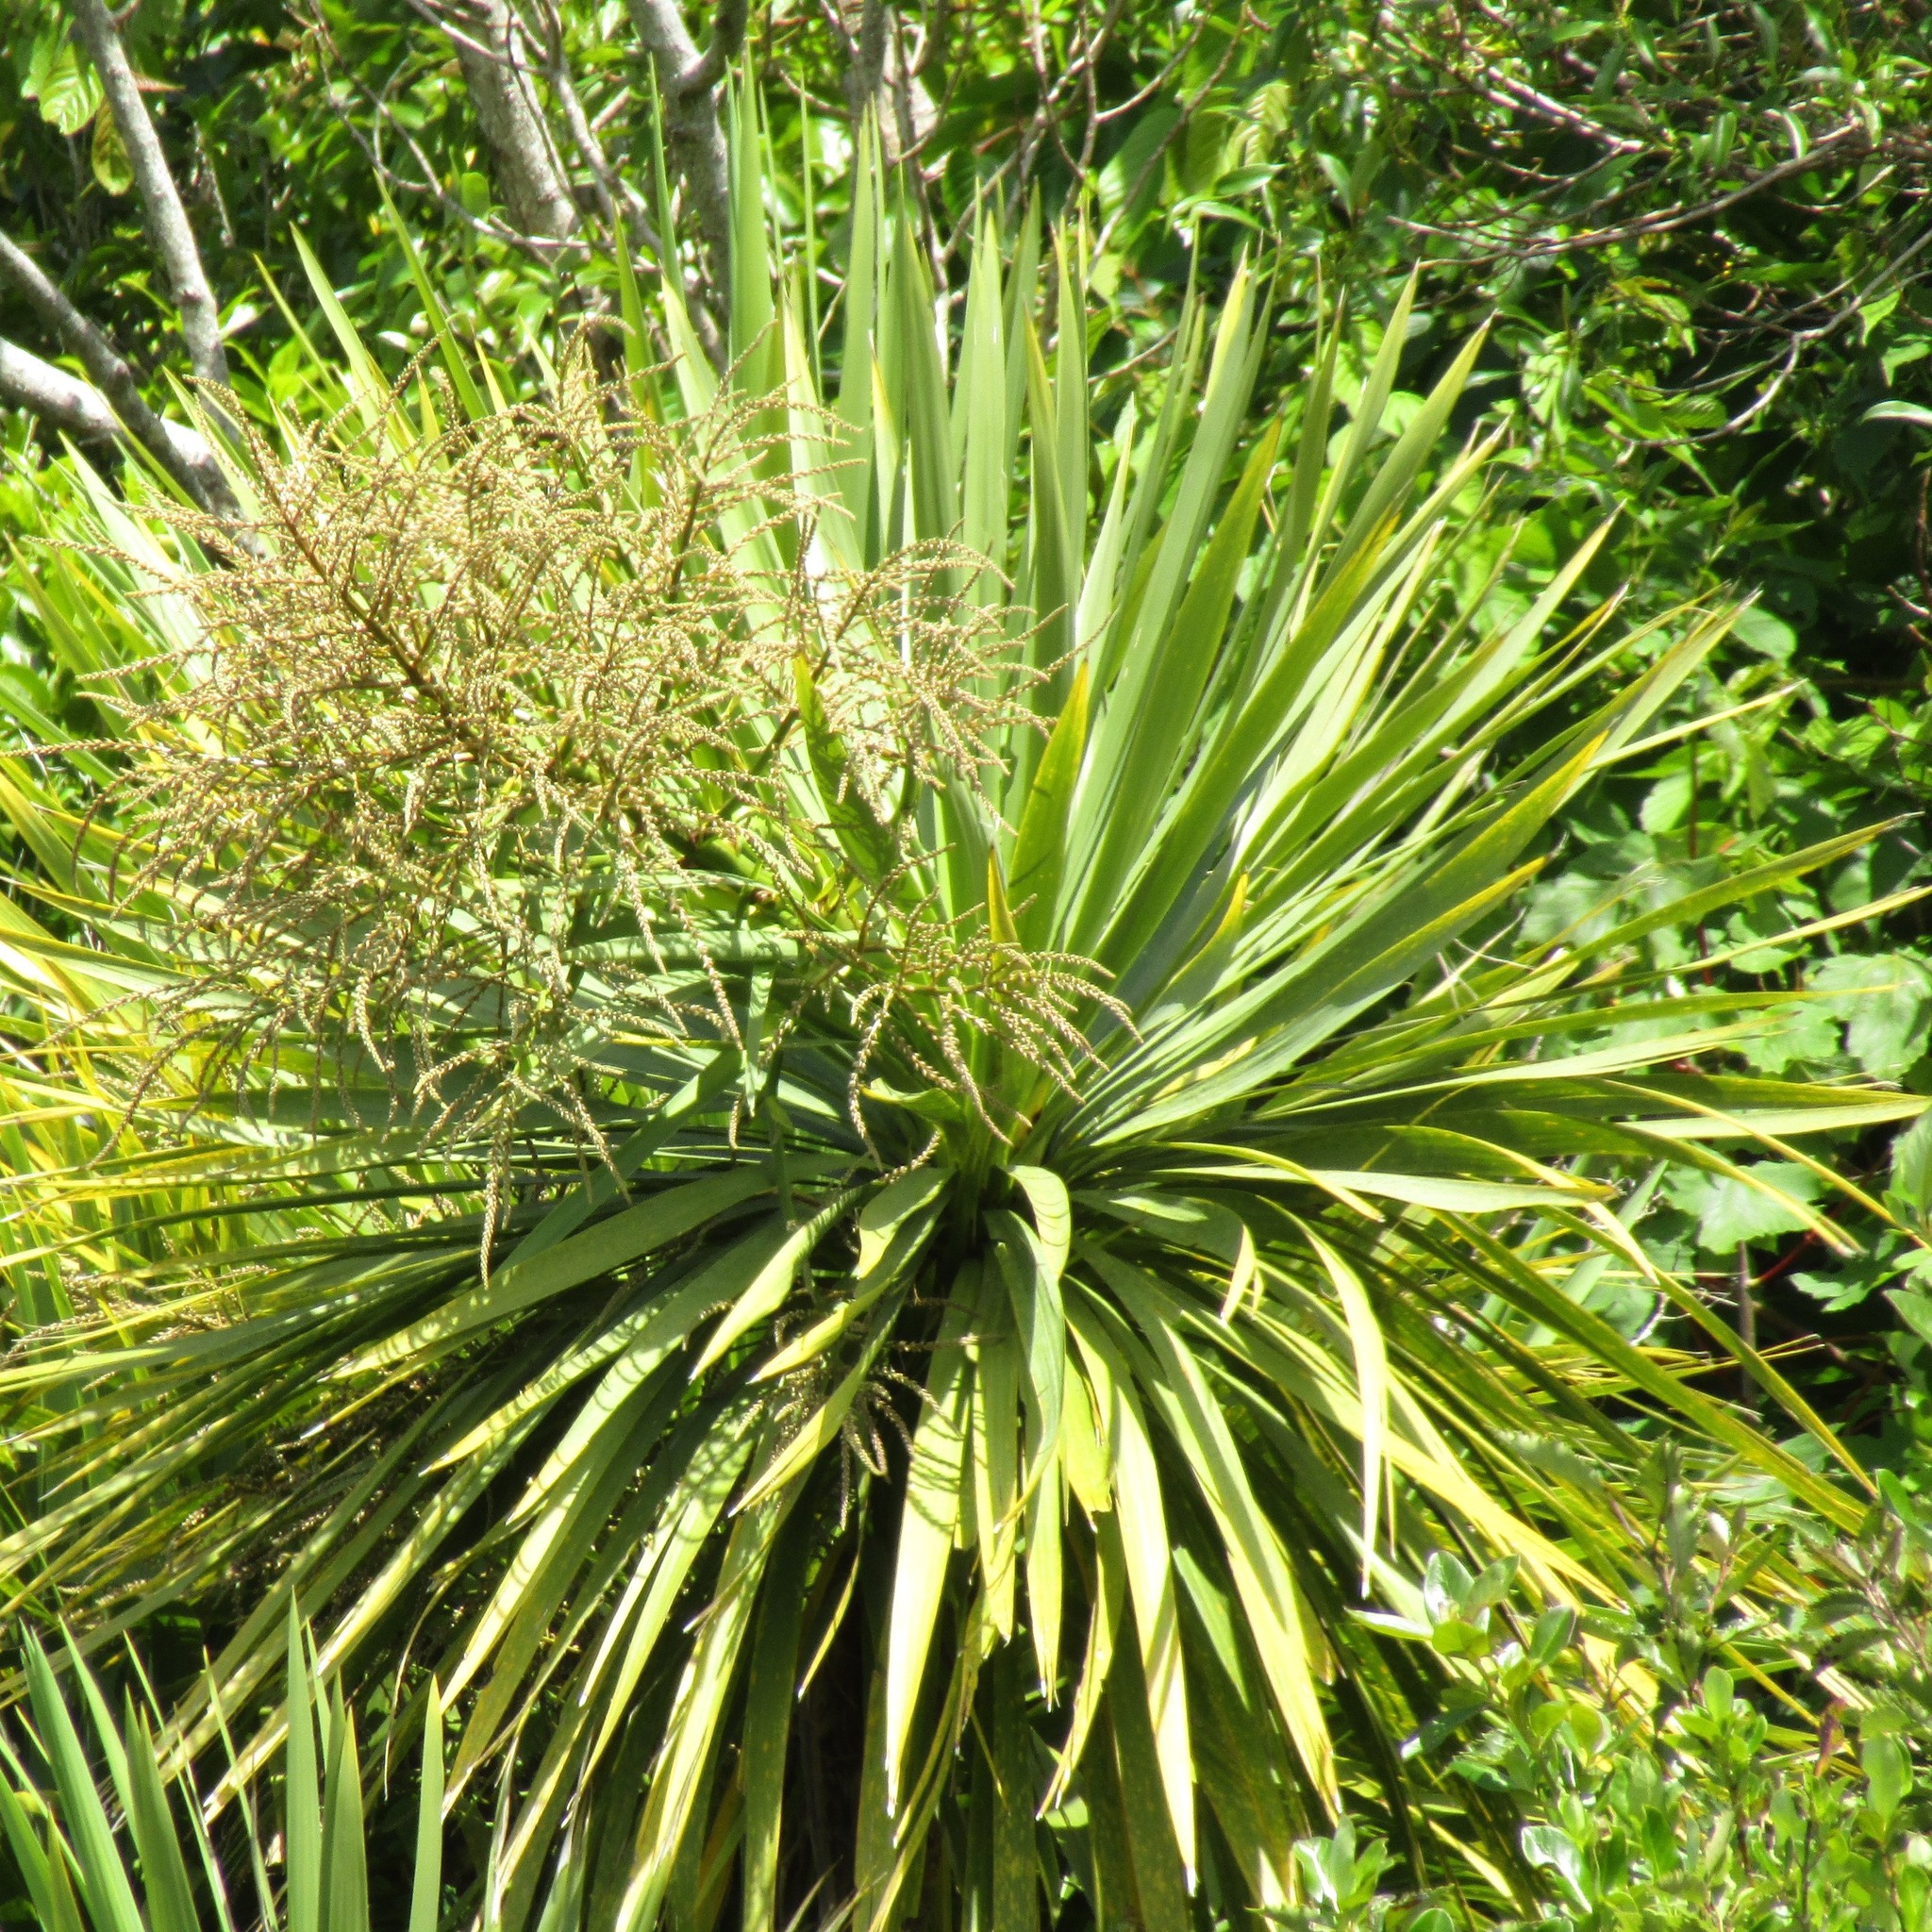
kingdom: Plantae
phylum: Tracheophyta
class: Liliopsida
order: Asparagales
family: Asparagaceae
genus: Cordyline
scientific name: Cordyline australis
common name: Cabbage-palm
